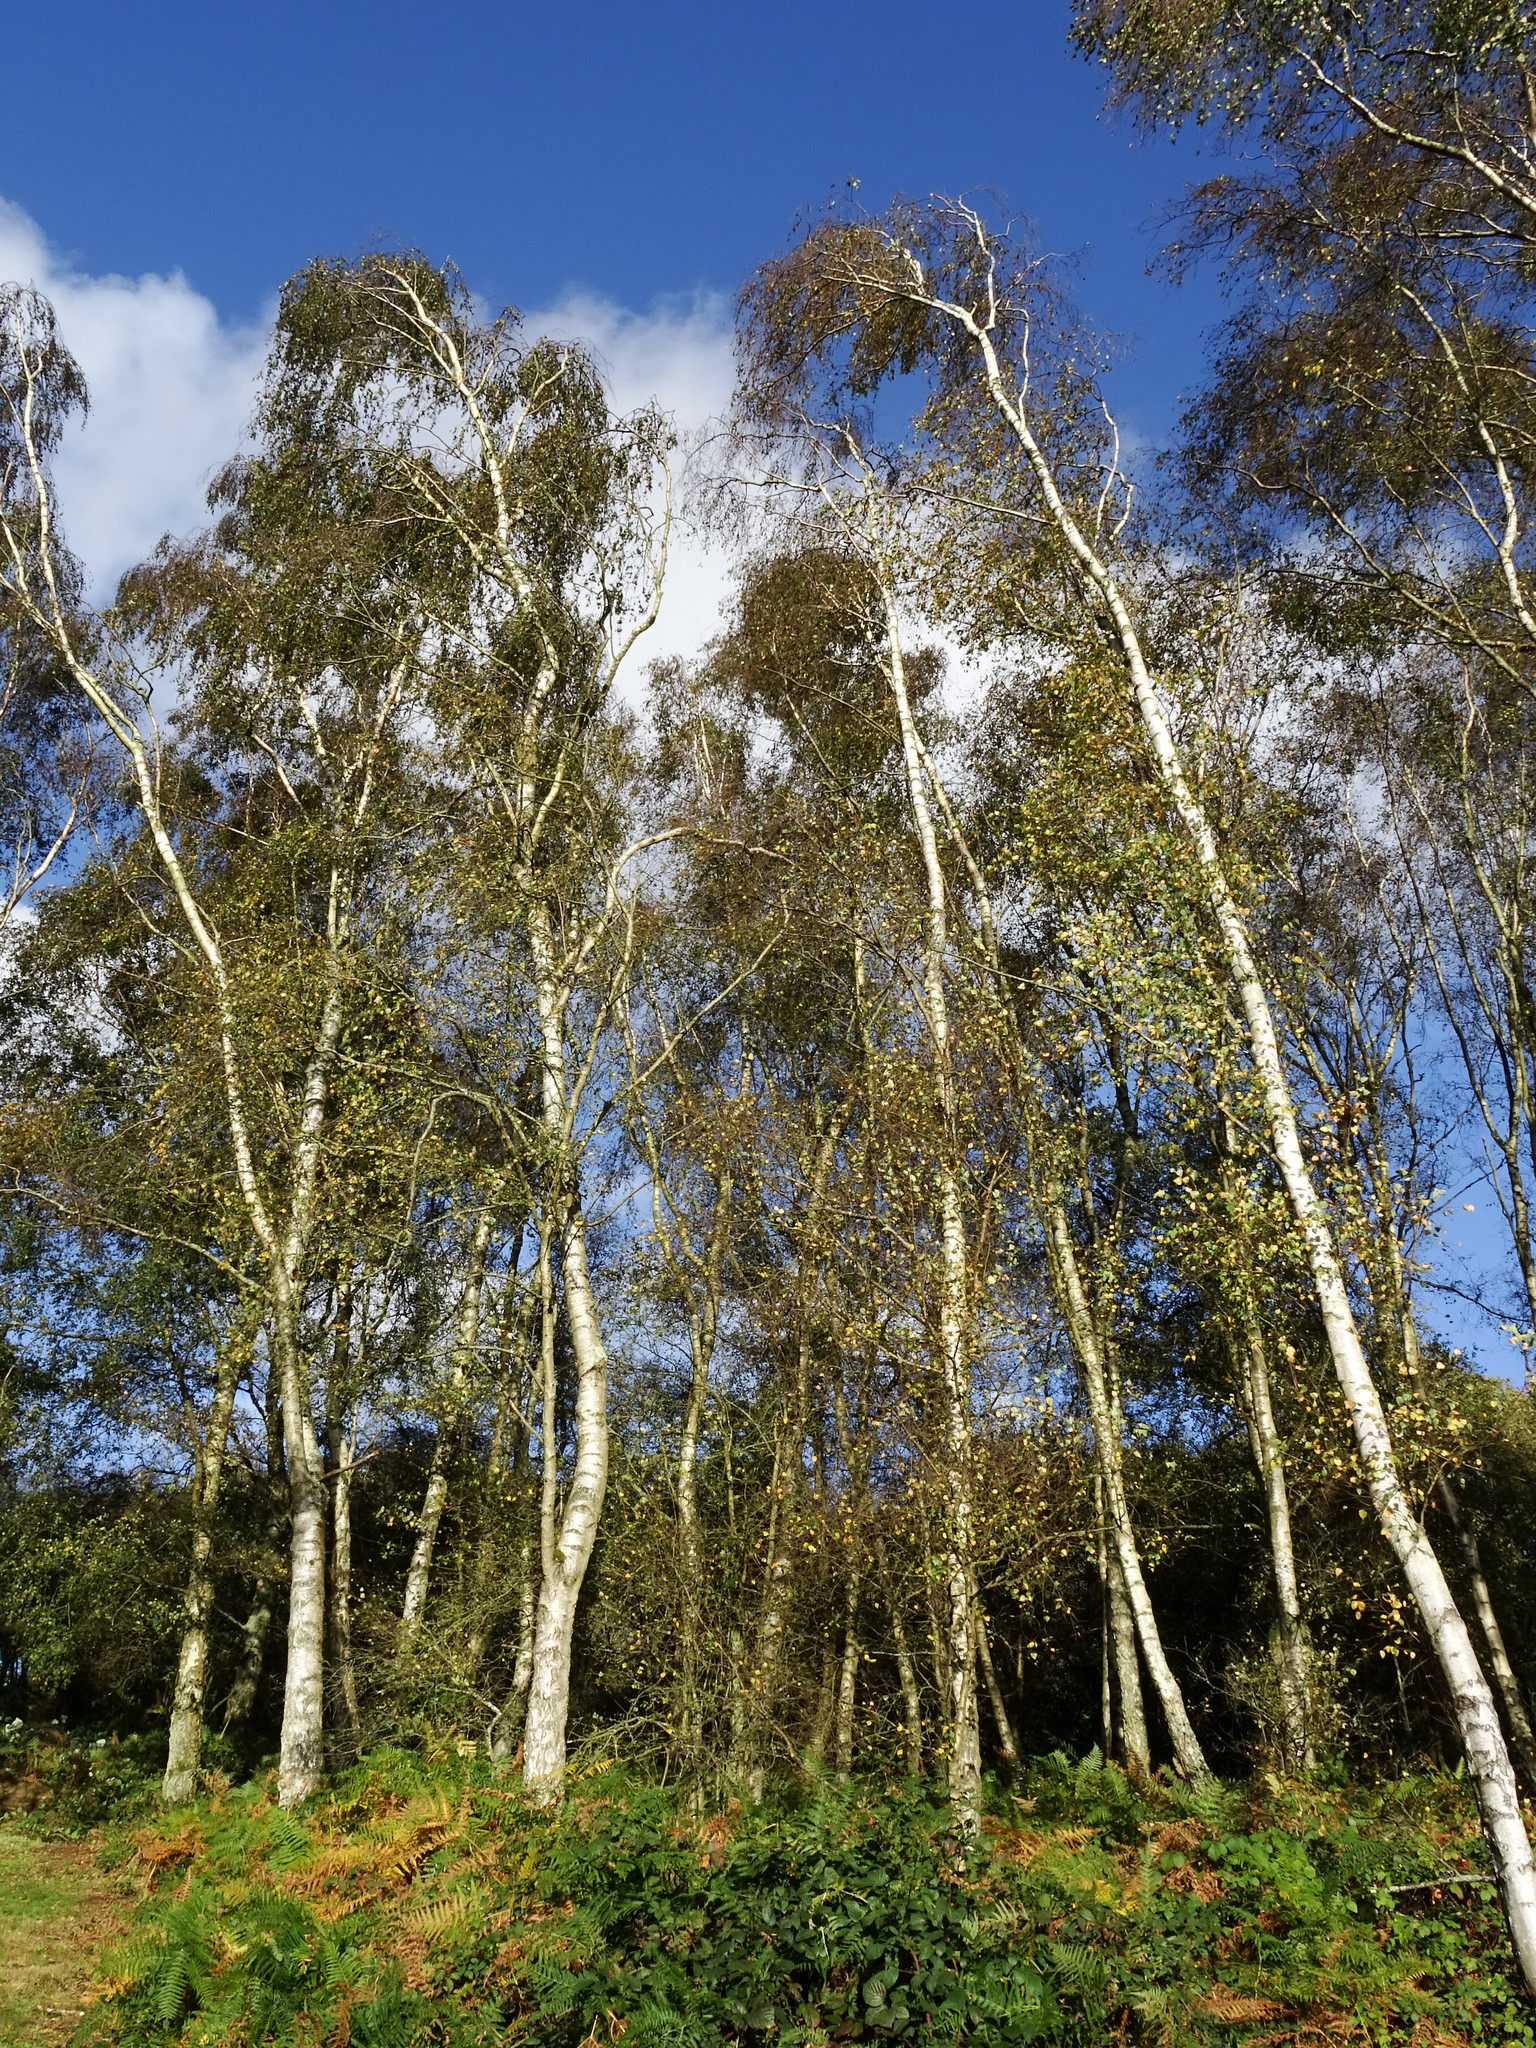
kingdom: Plantae
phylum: Tracheophyta
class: Magnoliopsida
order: Fagales
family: Betulaceae
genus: Betula
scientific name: Betula pendula
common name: Silver birch
